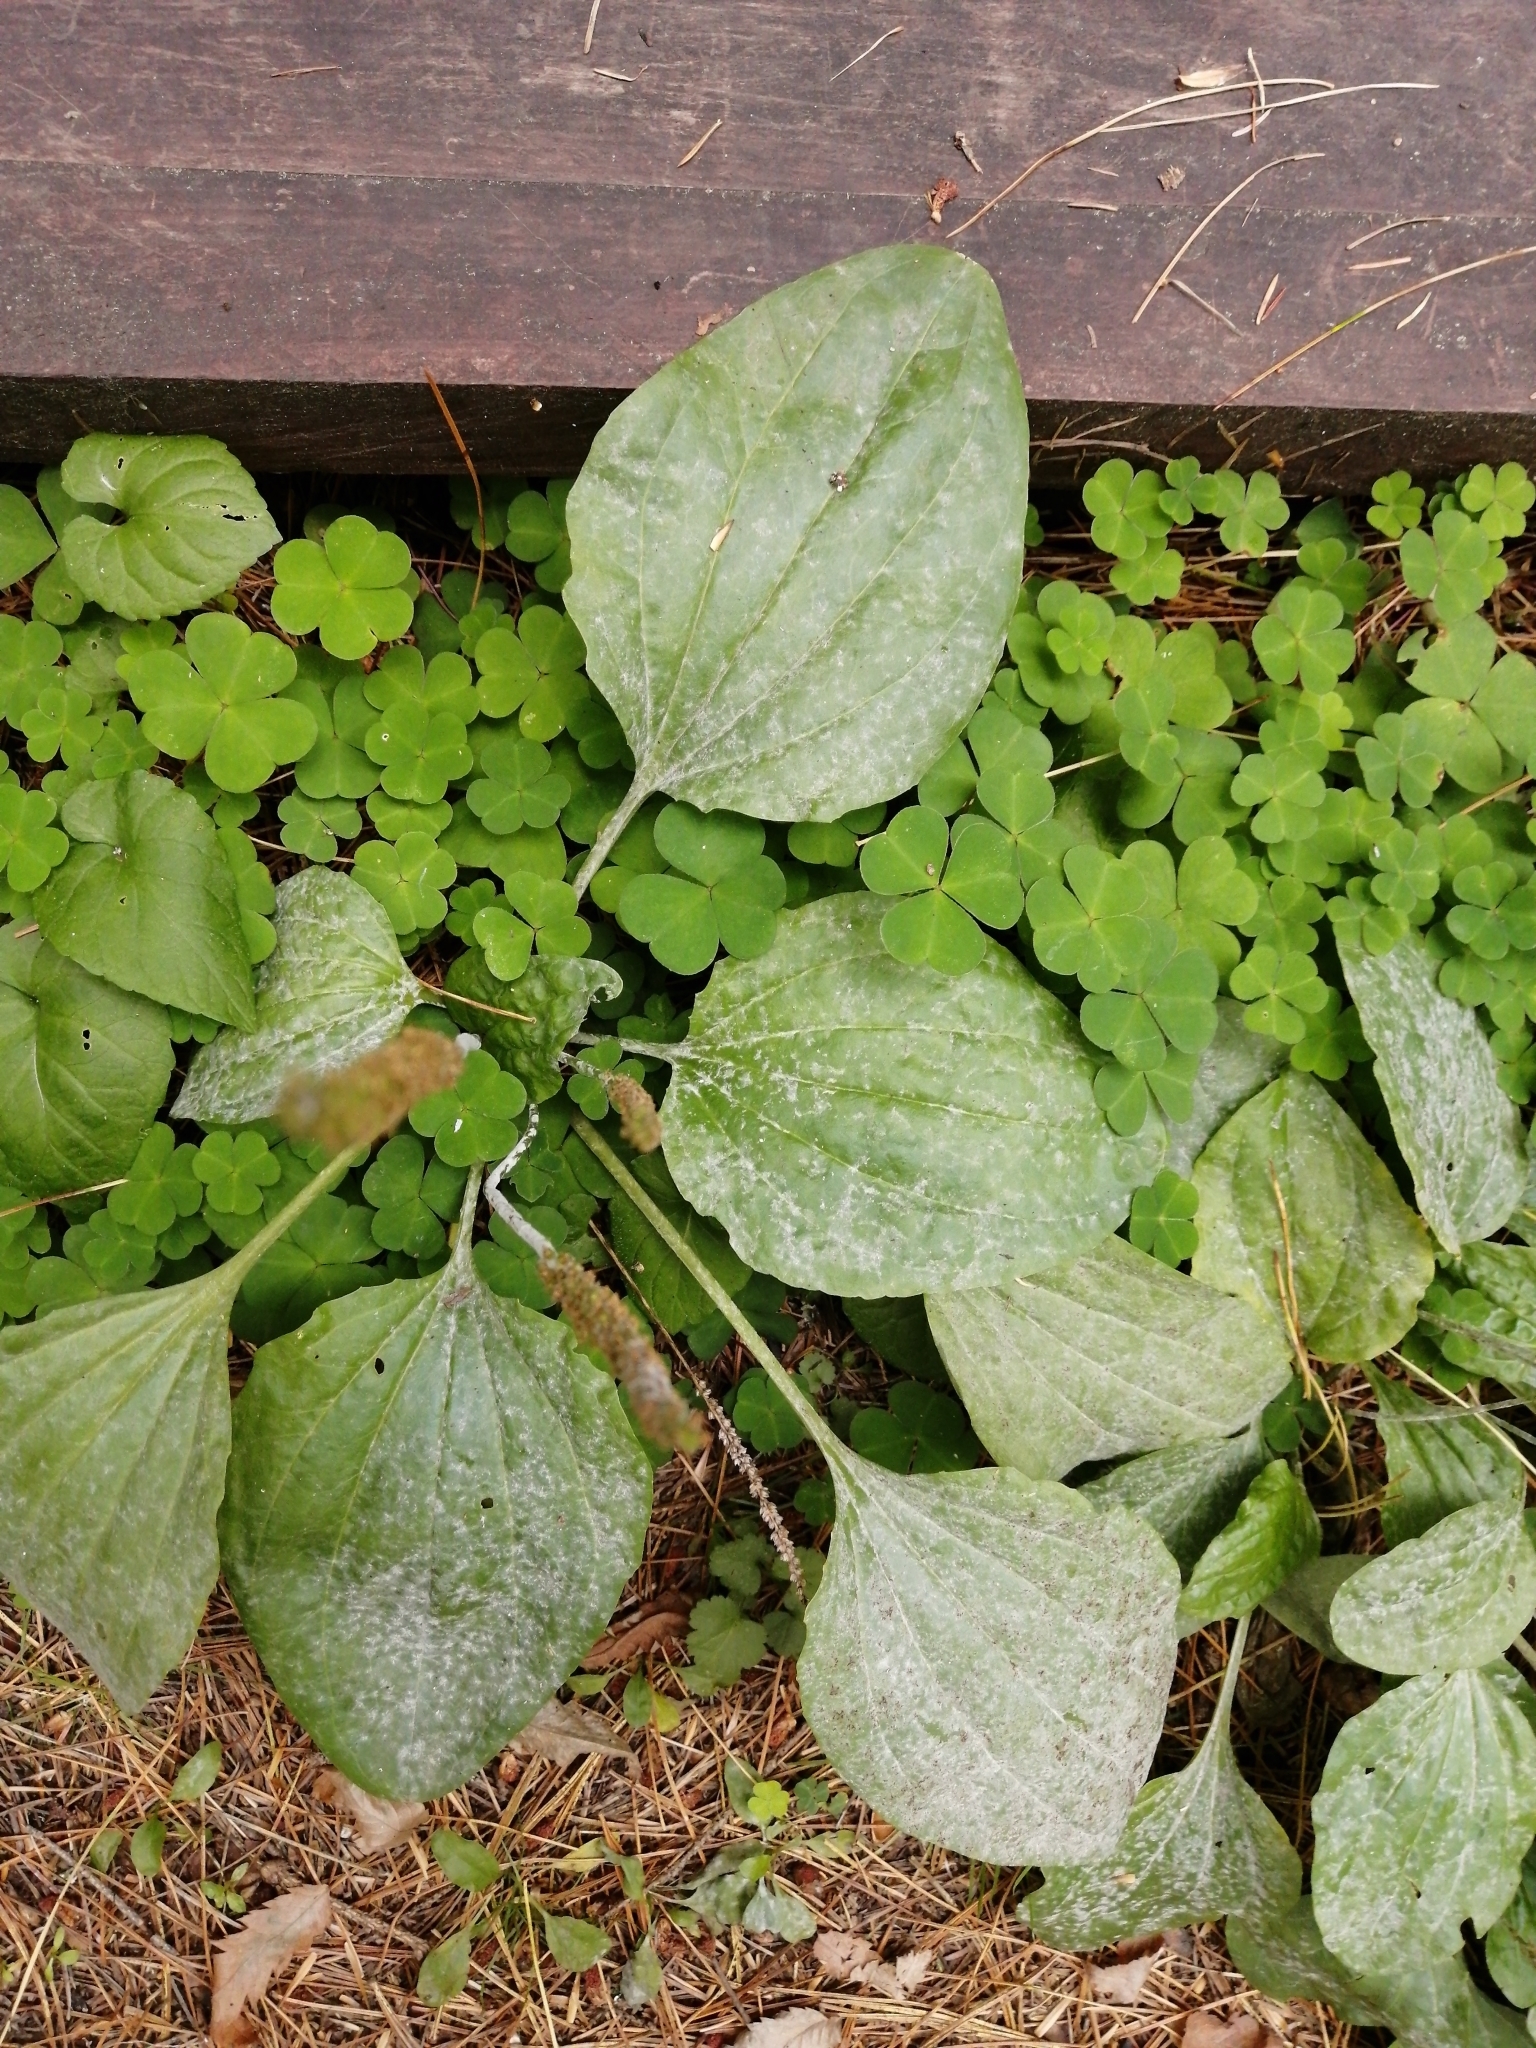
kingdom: Plantae
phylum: Tracheophyta
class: Magnoliopsida
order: Lamiales
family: Plantaginaceae
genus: Plantago
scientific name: Plantago major
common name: Common plantain
